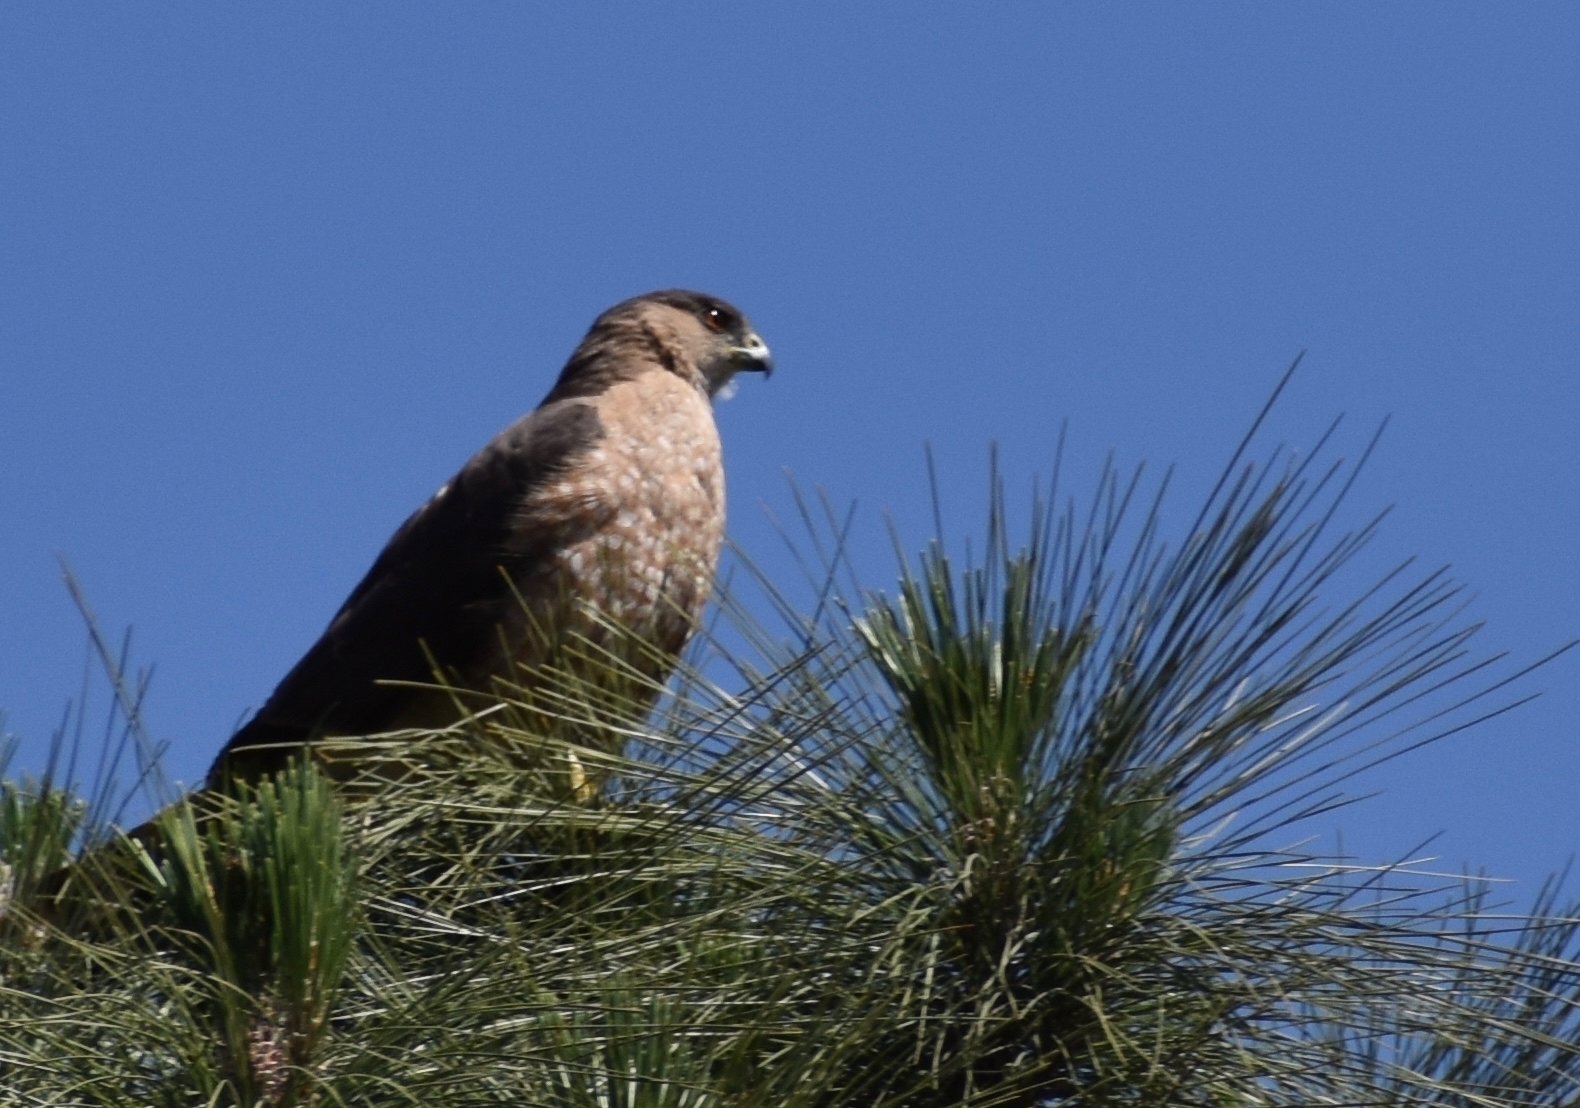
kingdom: Animalia
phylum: Chordata
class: Aves
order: Accipitriformes
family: Accipitridae
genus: Accipiter
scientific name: Accipiter cooperii
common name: Cooper's hawk
